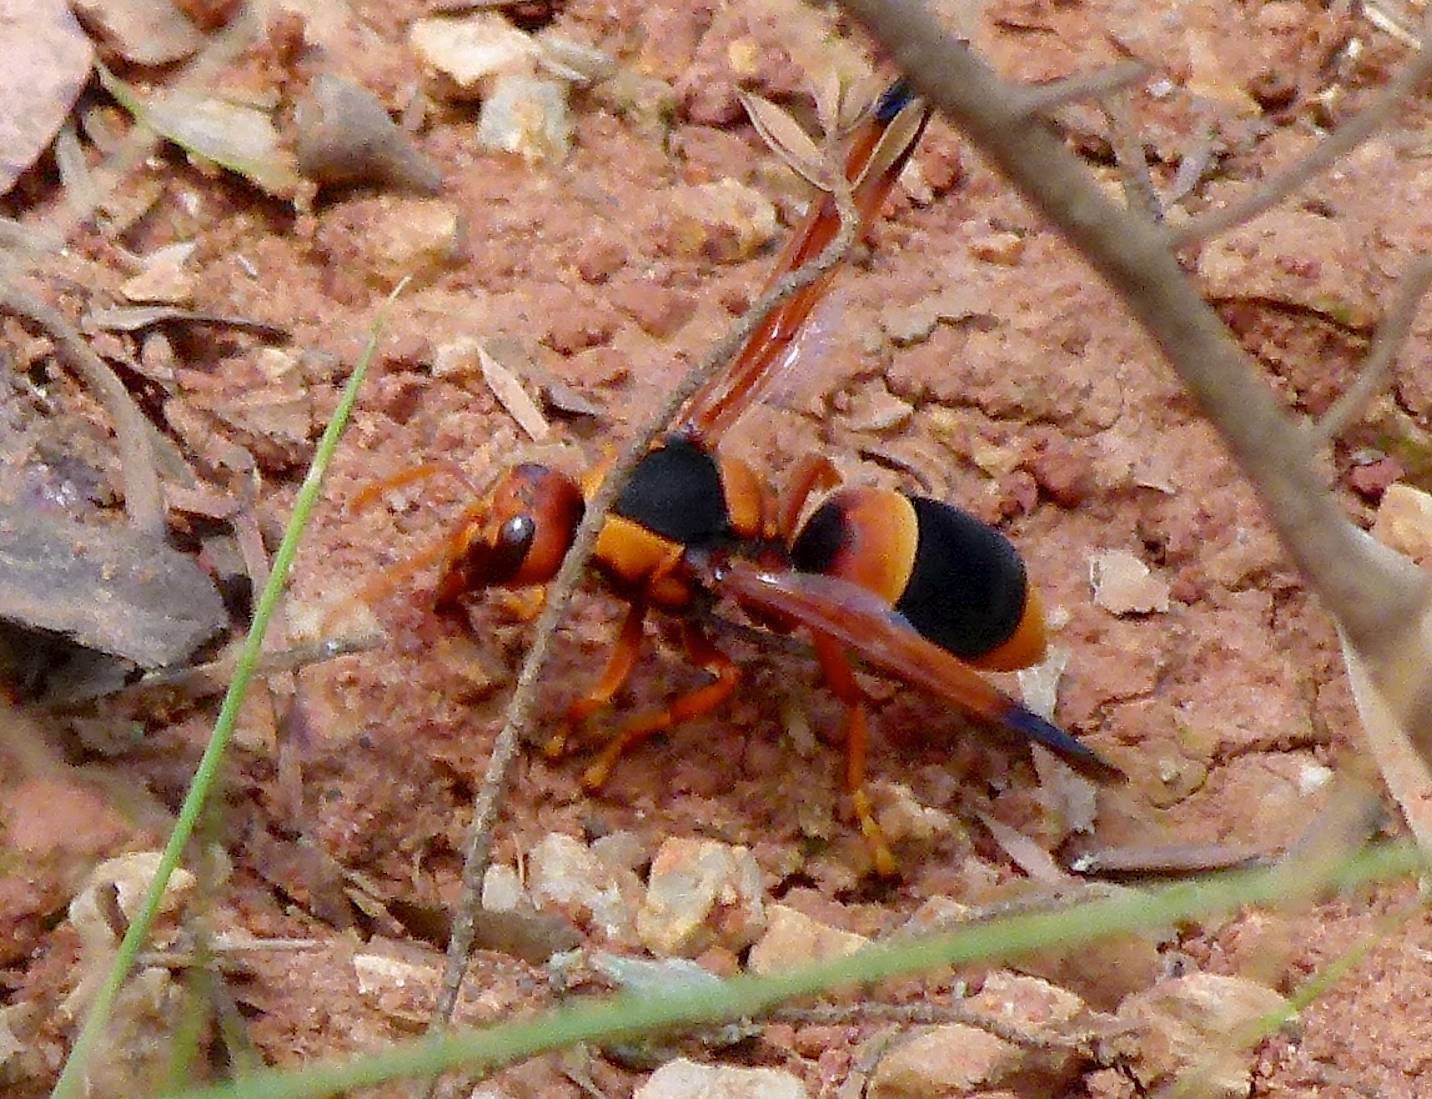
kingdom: Animalia
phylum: Arthropoda
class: Insecta
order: Hymenoptera
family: Eumenidae
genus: Abispa
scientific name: Abispa ephippium
